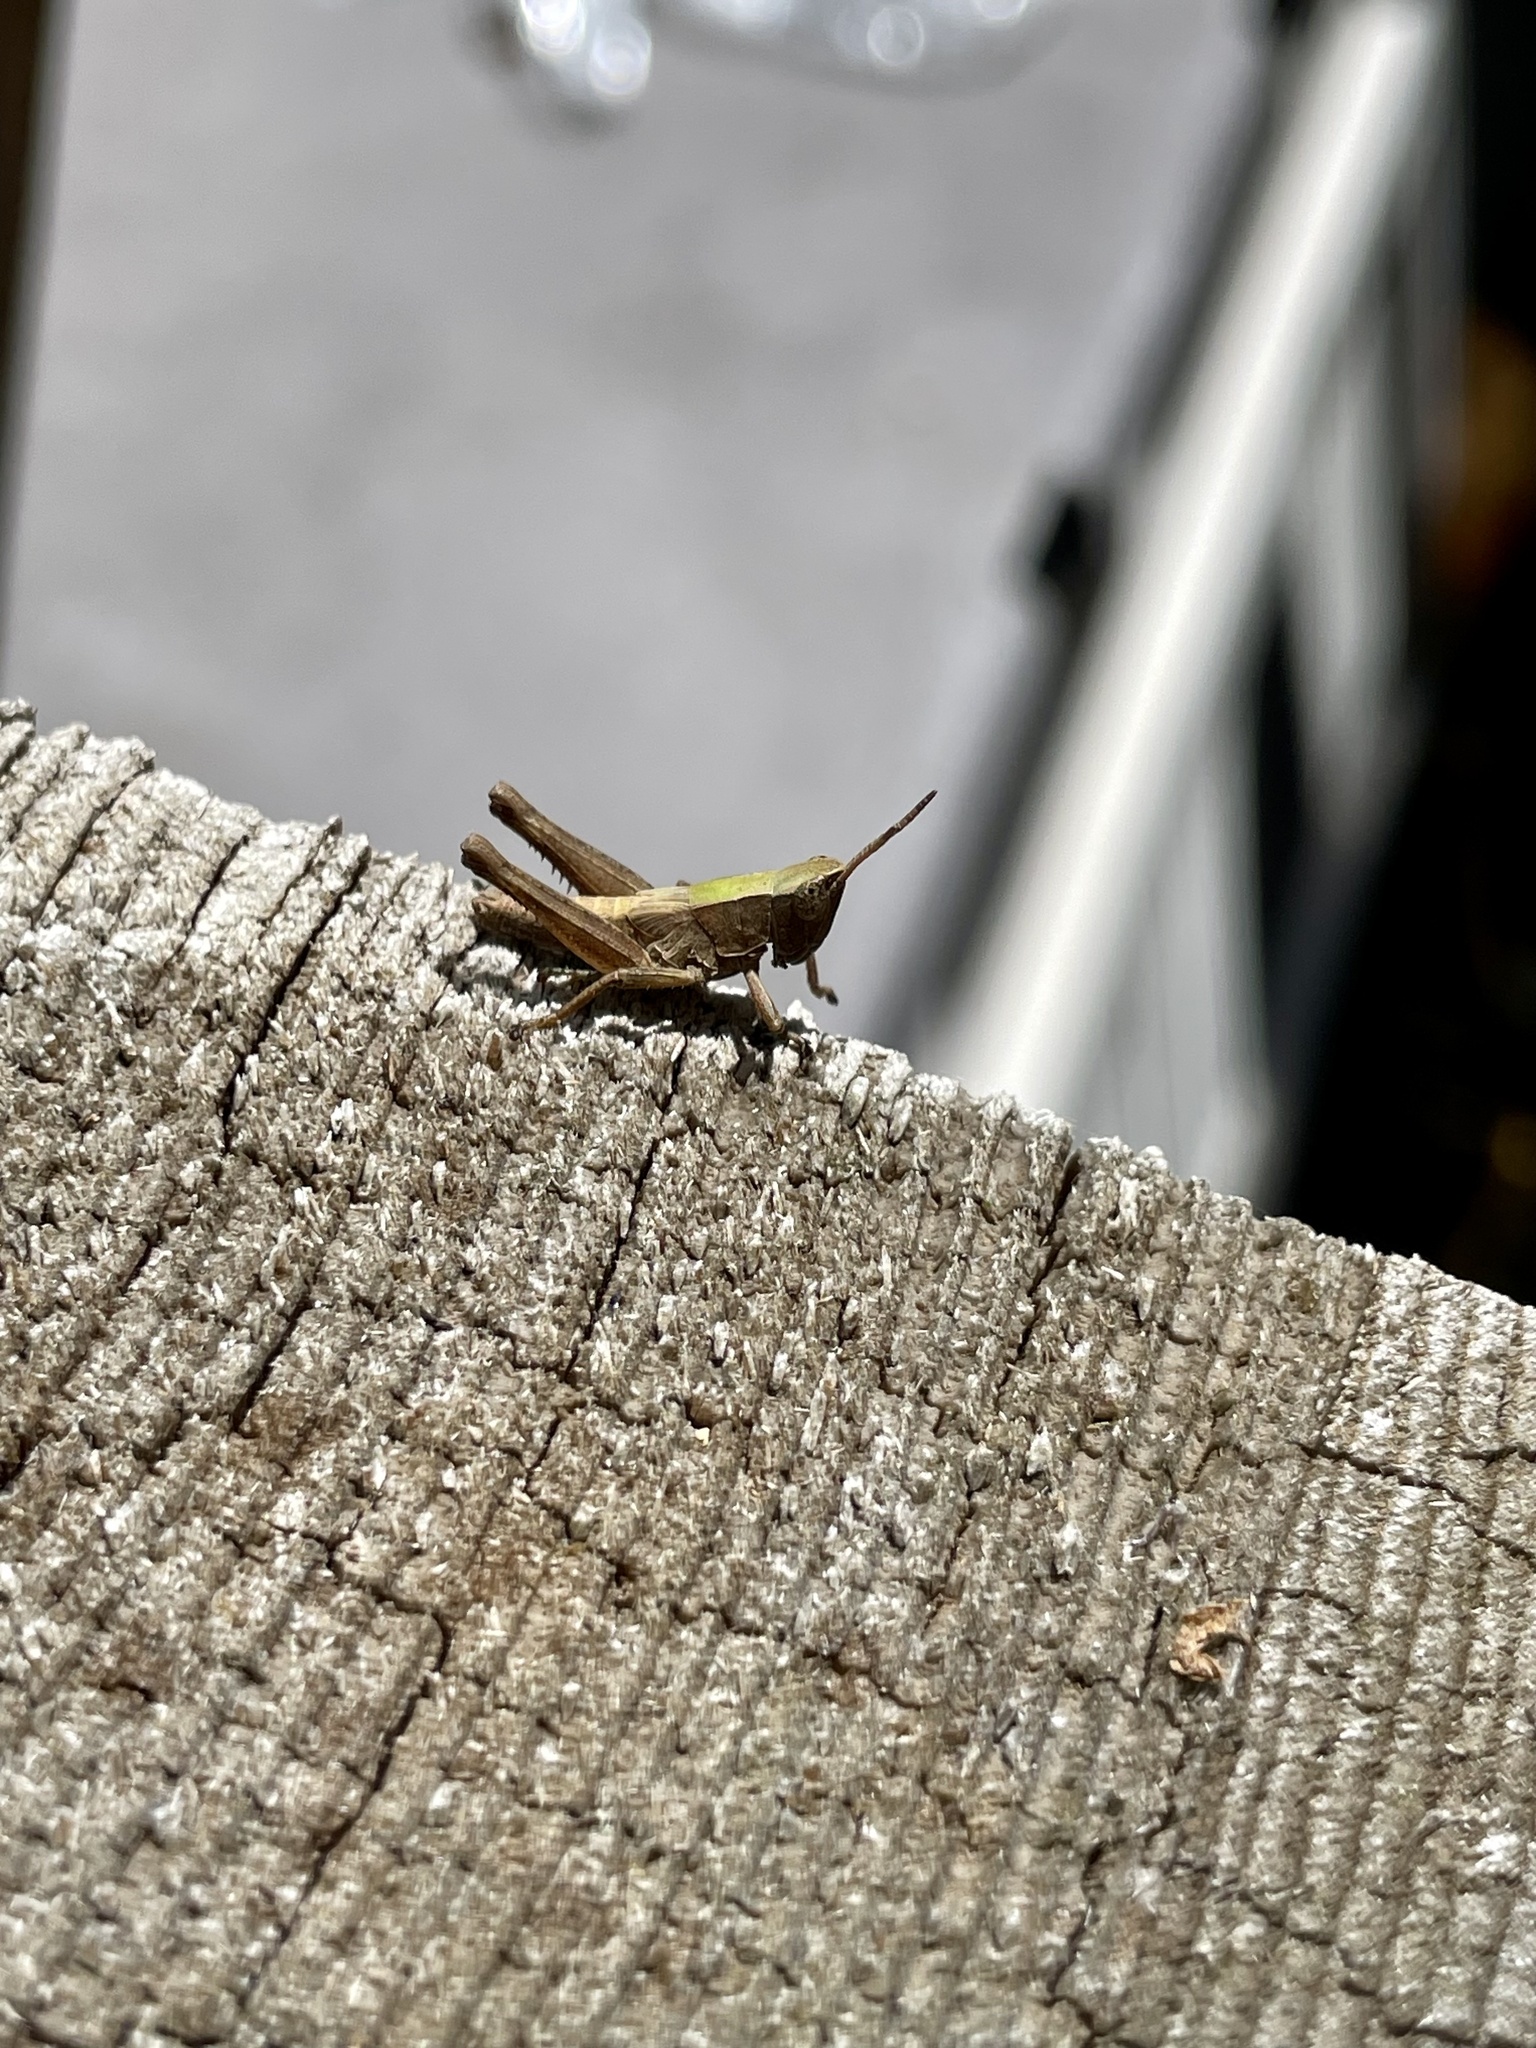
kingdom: Animalia
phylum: Arthropoda
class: Insecta
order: Orthoptera
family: Acrididae
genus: Dichromorpha
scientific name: Dichromorpha viridis
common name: Short-winged green grasshopper
